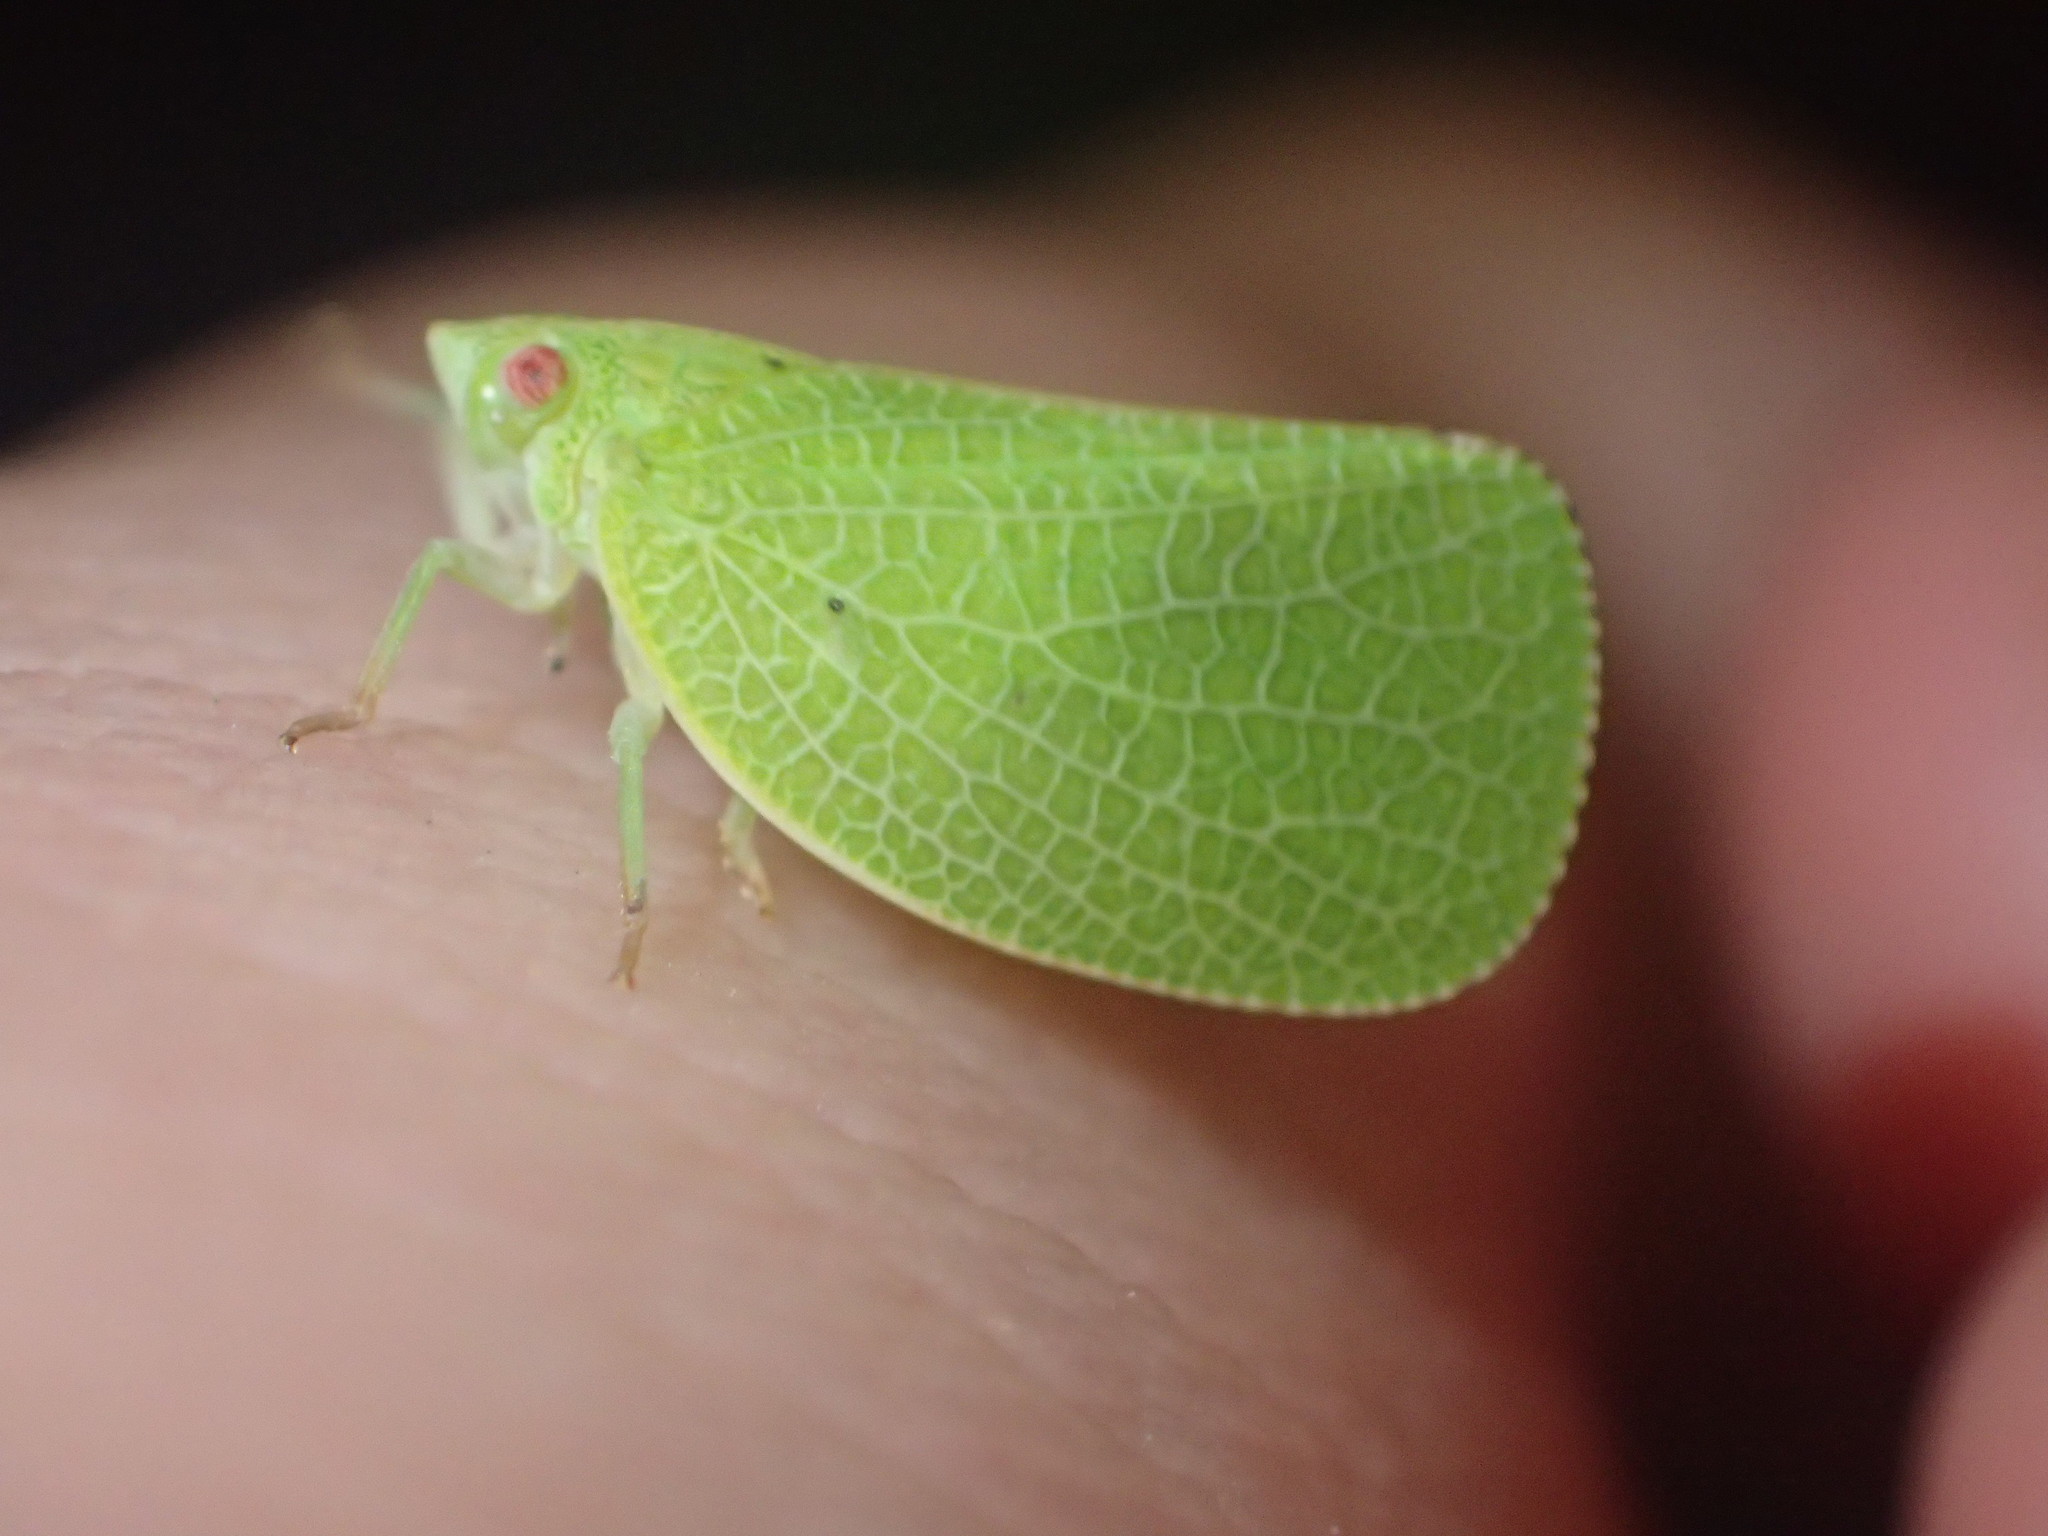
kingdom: Animalia
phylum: Arthropoda
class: Insecta
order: Hemiptera
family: Acanaloniidae
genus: Acanalonia
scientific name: Acanalonia conica
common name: Green cone-headed planthopper
